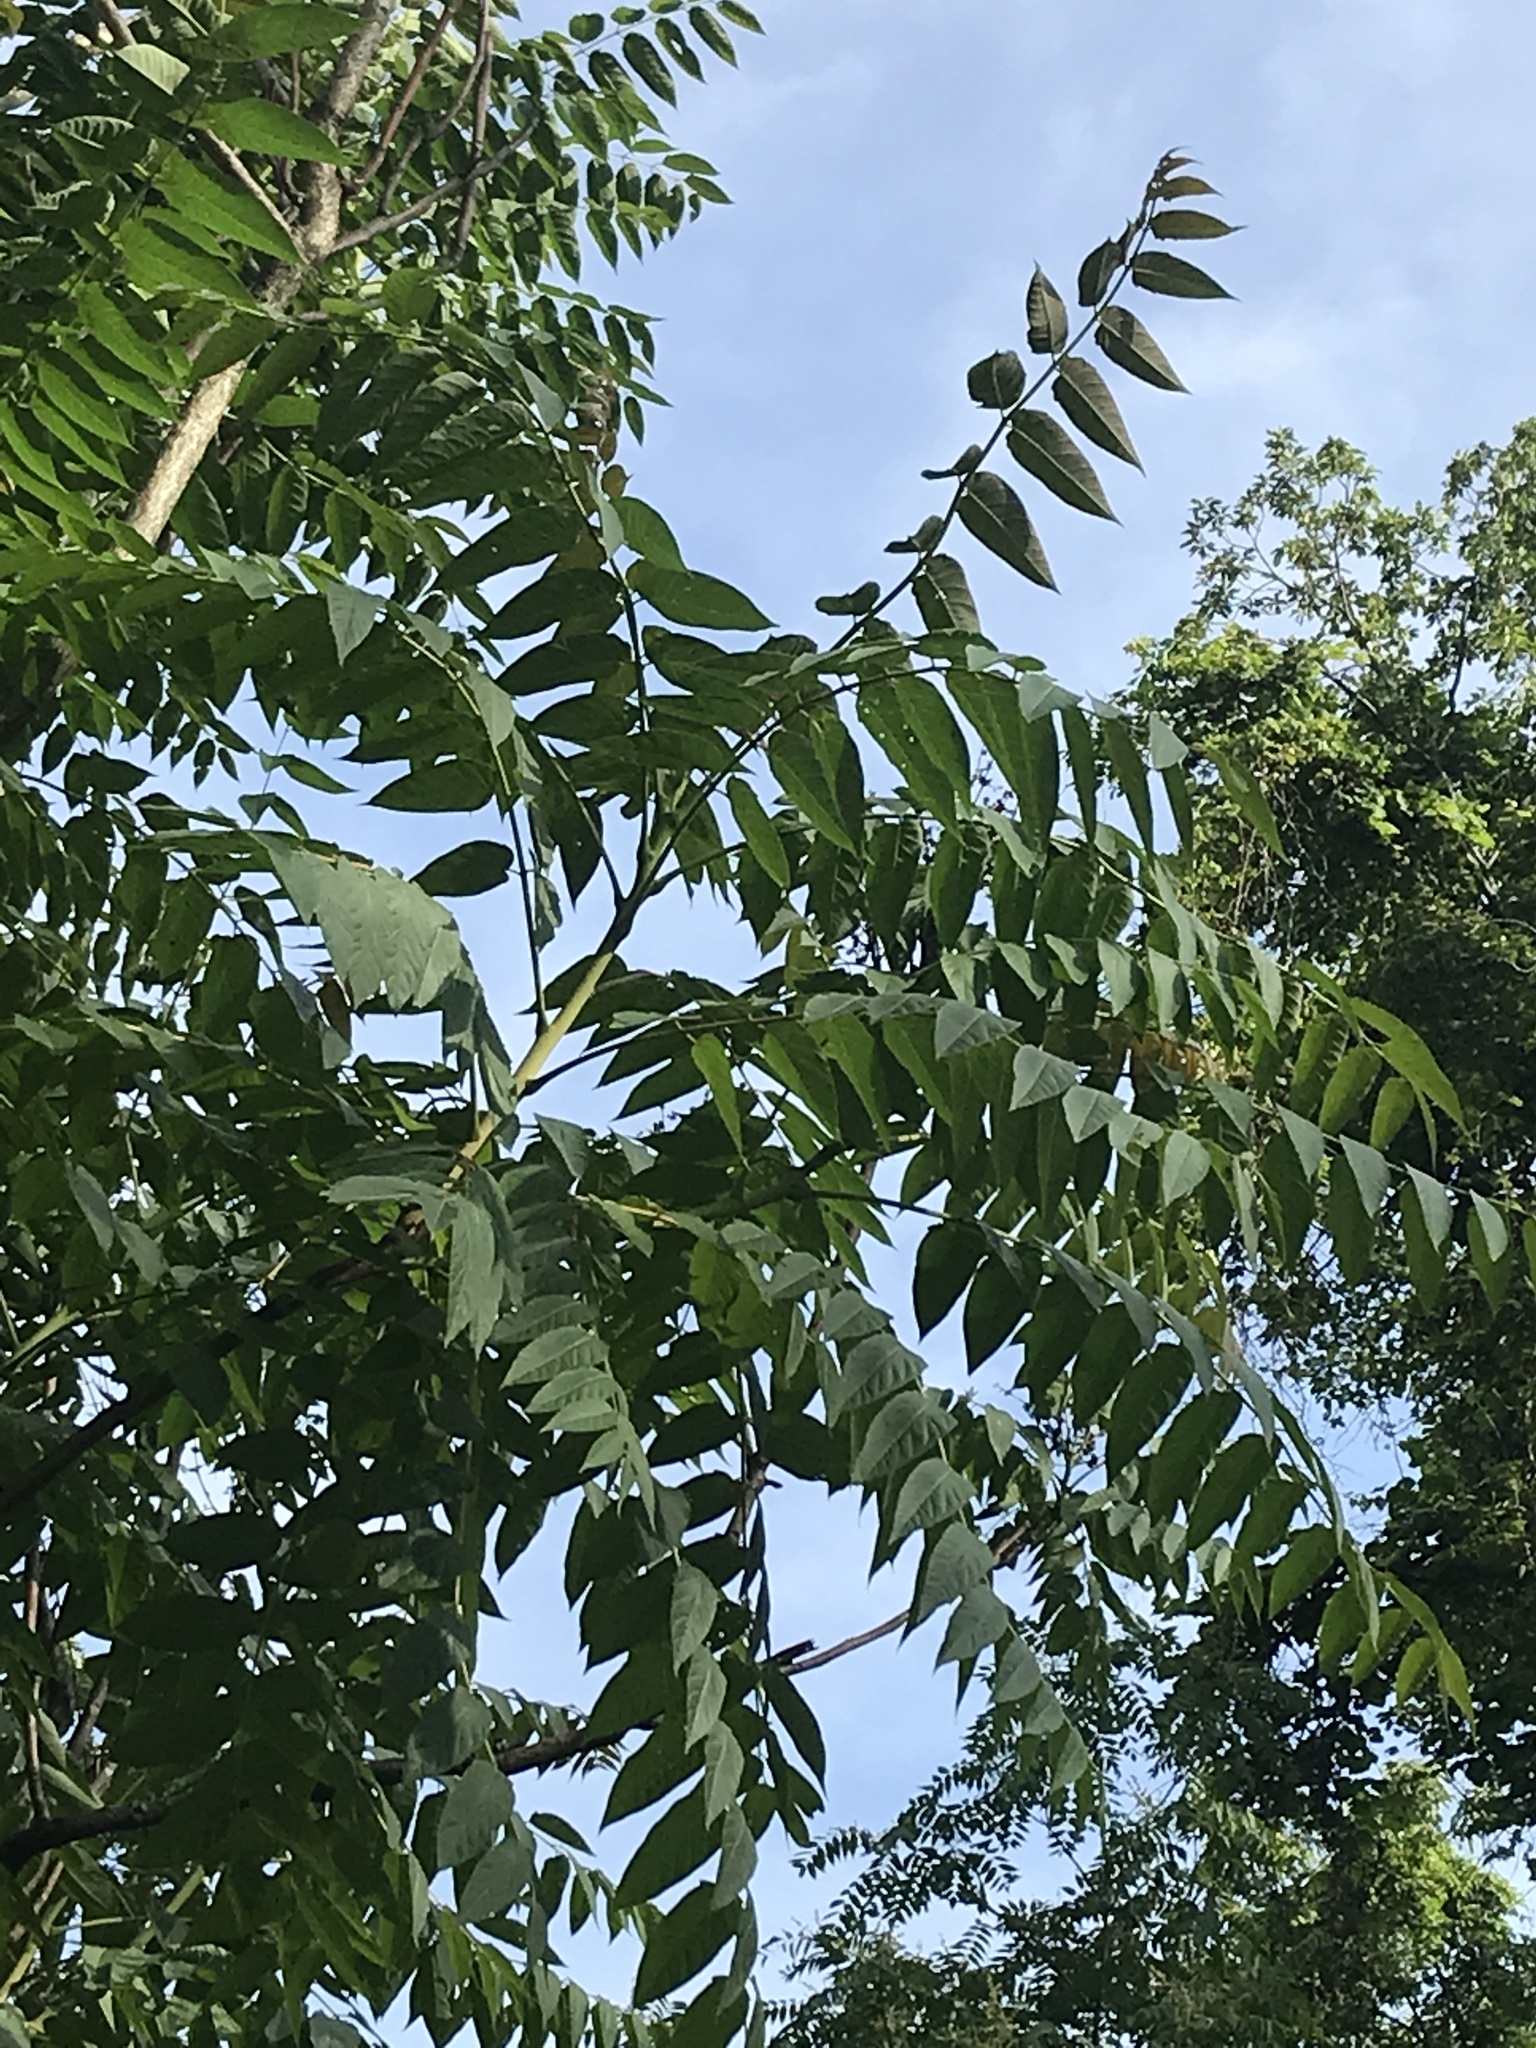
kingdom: Plantae
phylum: Tracheophyta
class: Magnoliopsida
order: Sapindales
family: Simaroubaceae
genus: Ailanthus
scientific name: Ailanthus altissima
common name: Tree-of-heaven
